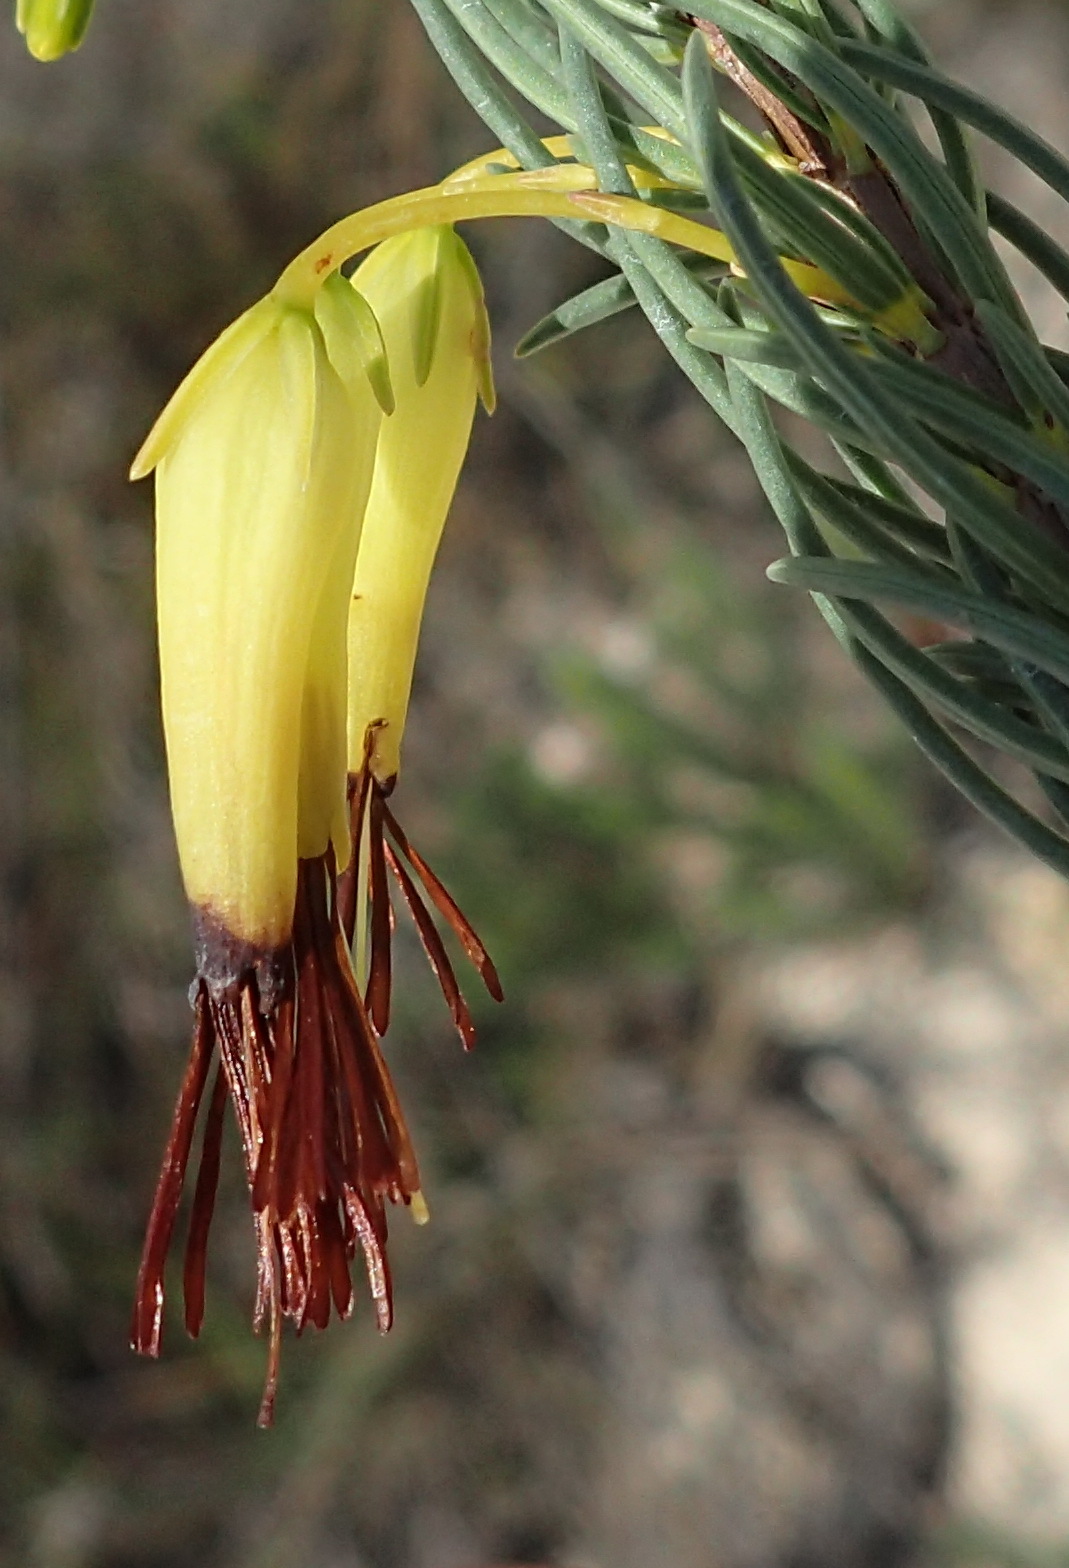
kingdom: Plantae
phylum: Tracheophyta
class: Magnoliopsida
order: Ericales
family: Ericaceae
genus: Erica
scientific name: Erica plukenetii
